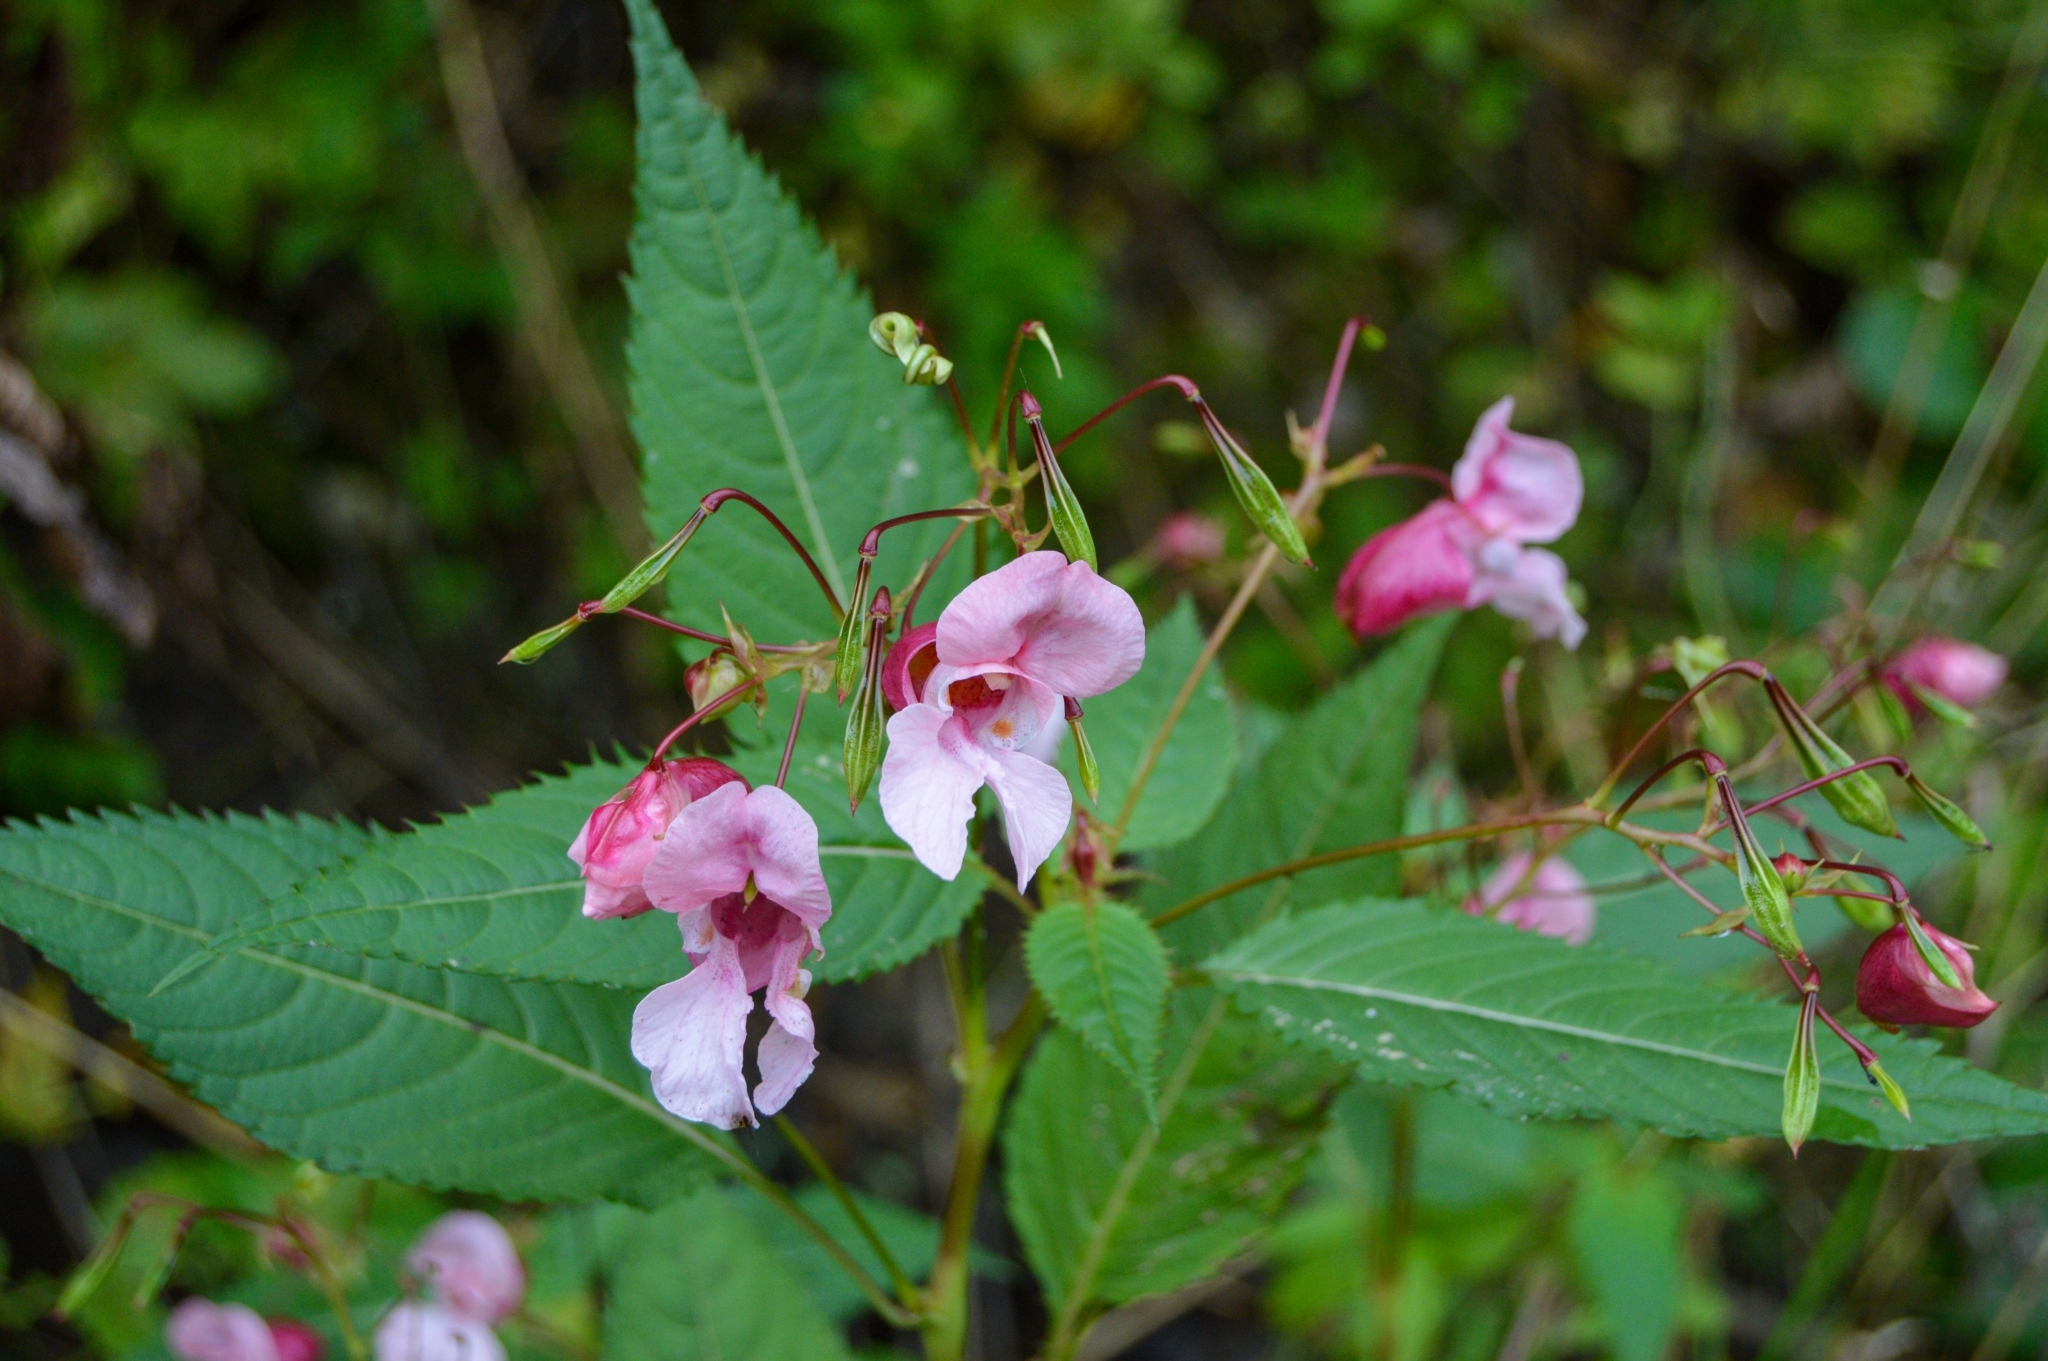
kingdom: Plantae
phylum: Tracheophyta
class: Magnoliopsida
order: Ericales
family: Balsaminaceae
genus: Impatiens
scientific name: Impatiens glandulifera
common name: Himalayan balsam
